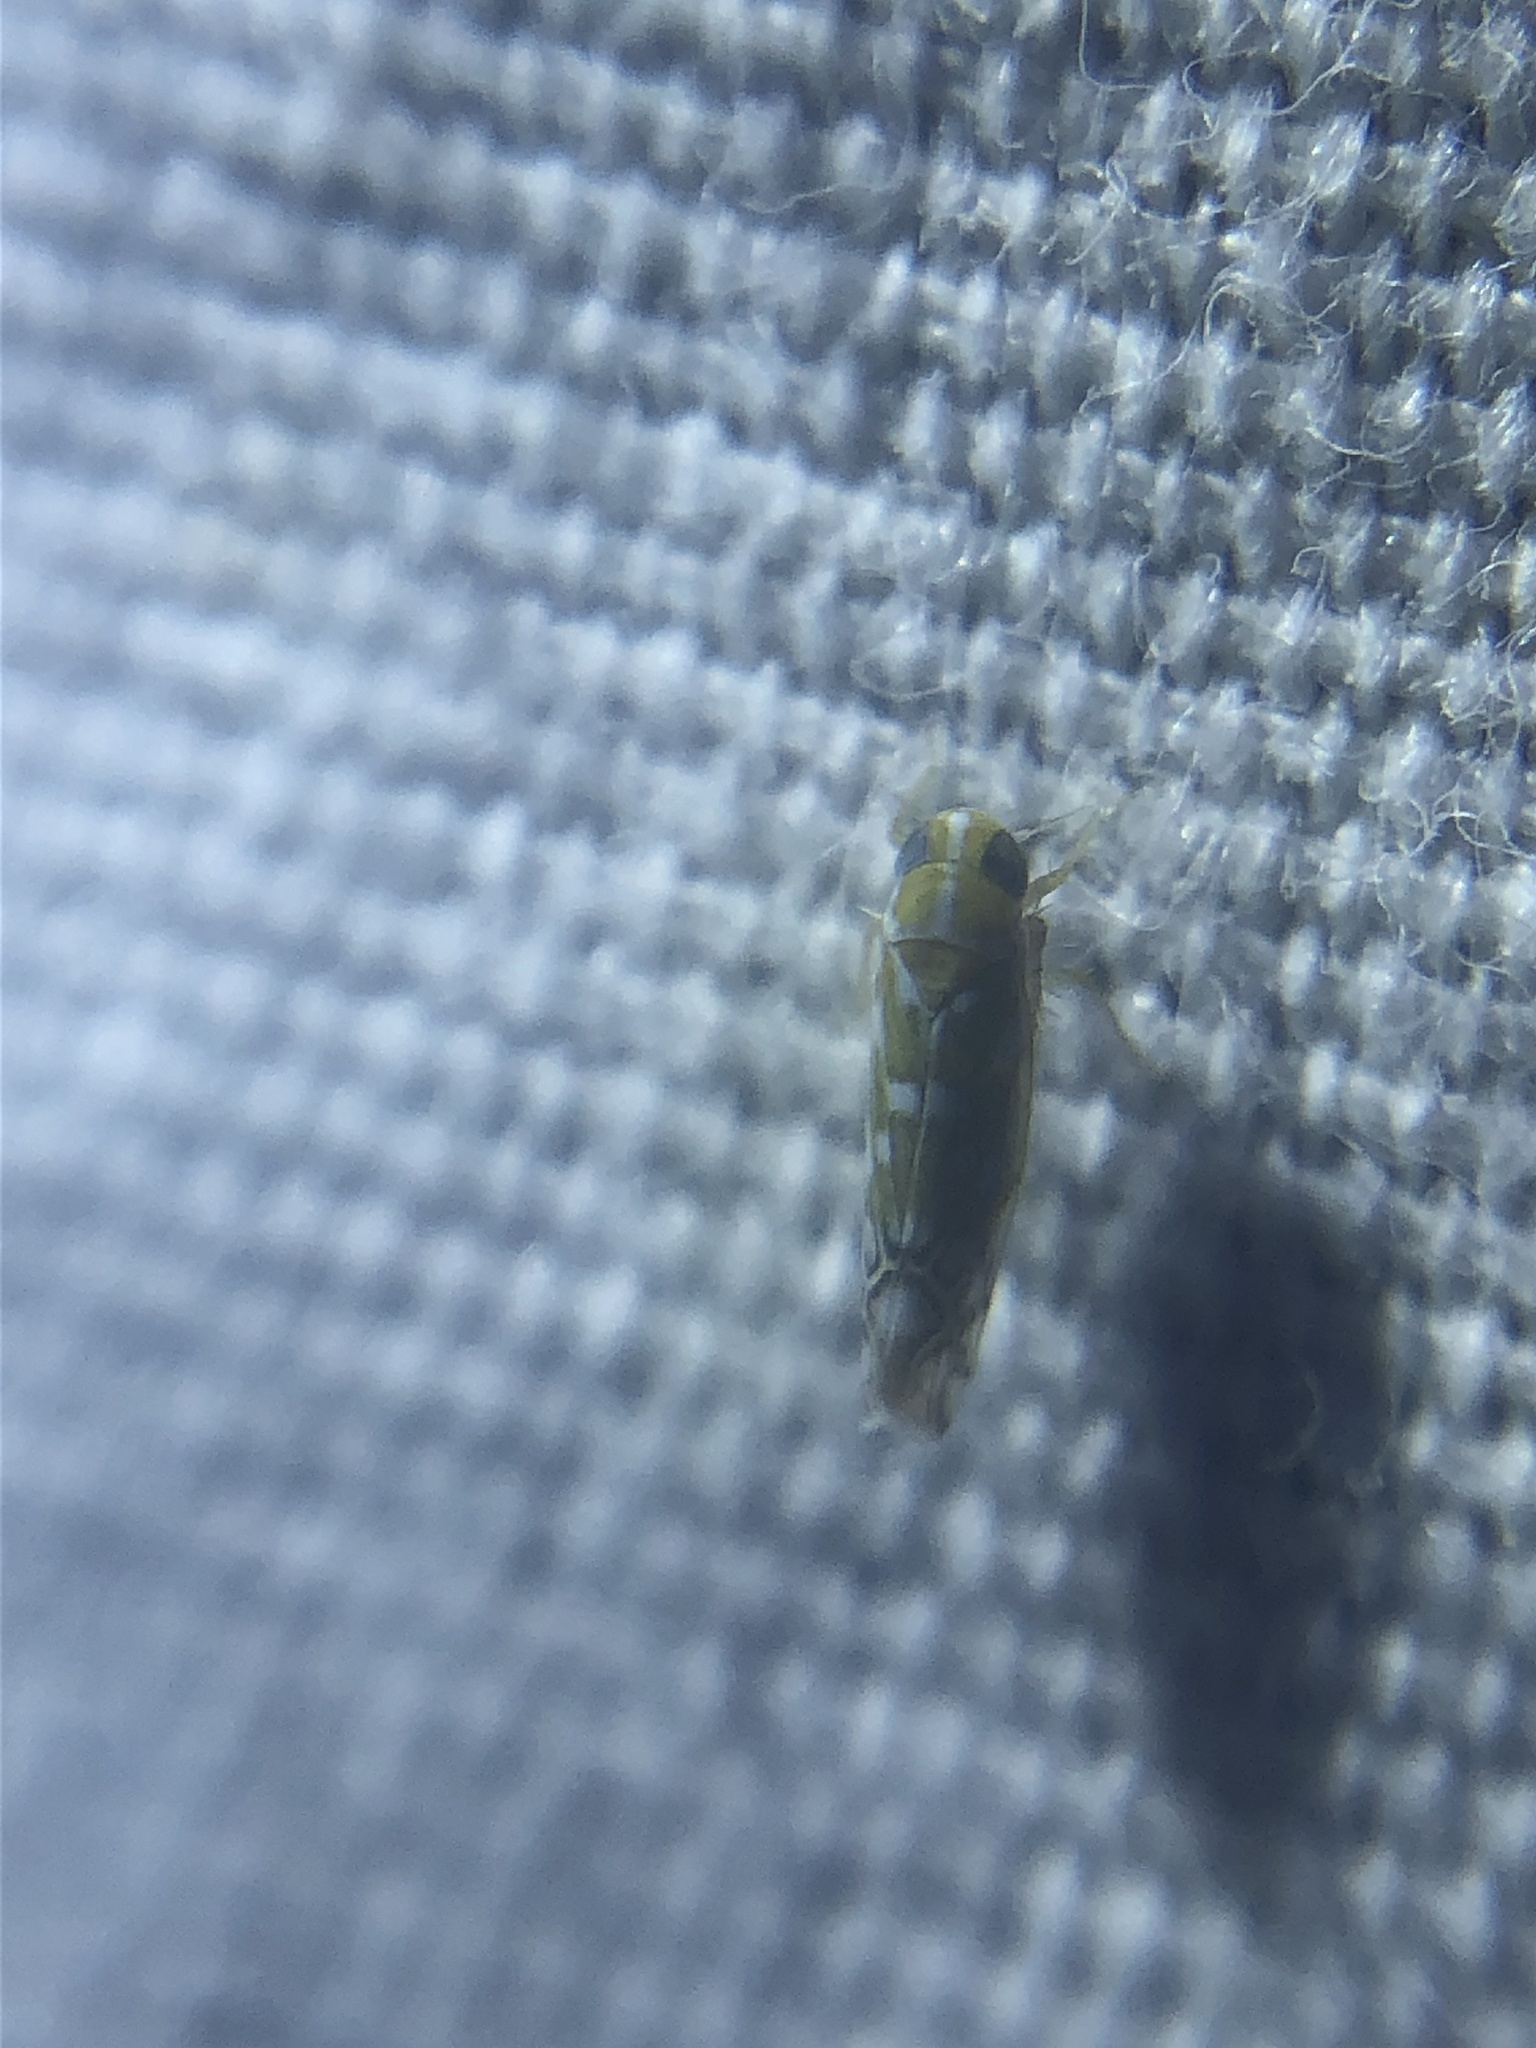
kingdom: Animalia
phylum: Arthropoda
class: Insecta
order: Hemiptera
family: Cicadellidae
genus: Diceratalebra
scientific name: Diceratalebra interrogata
